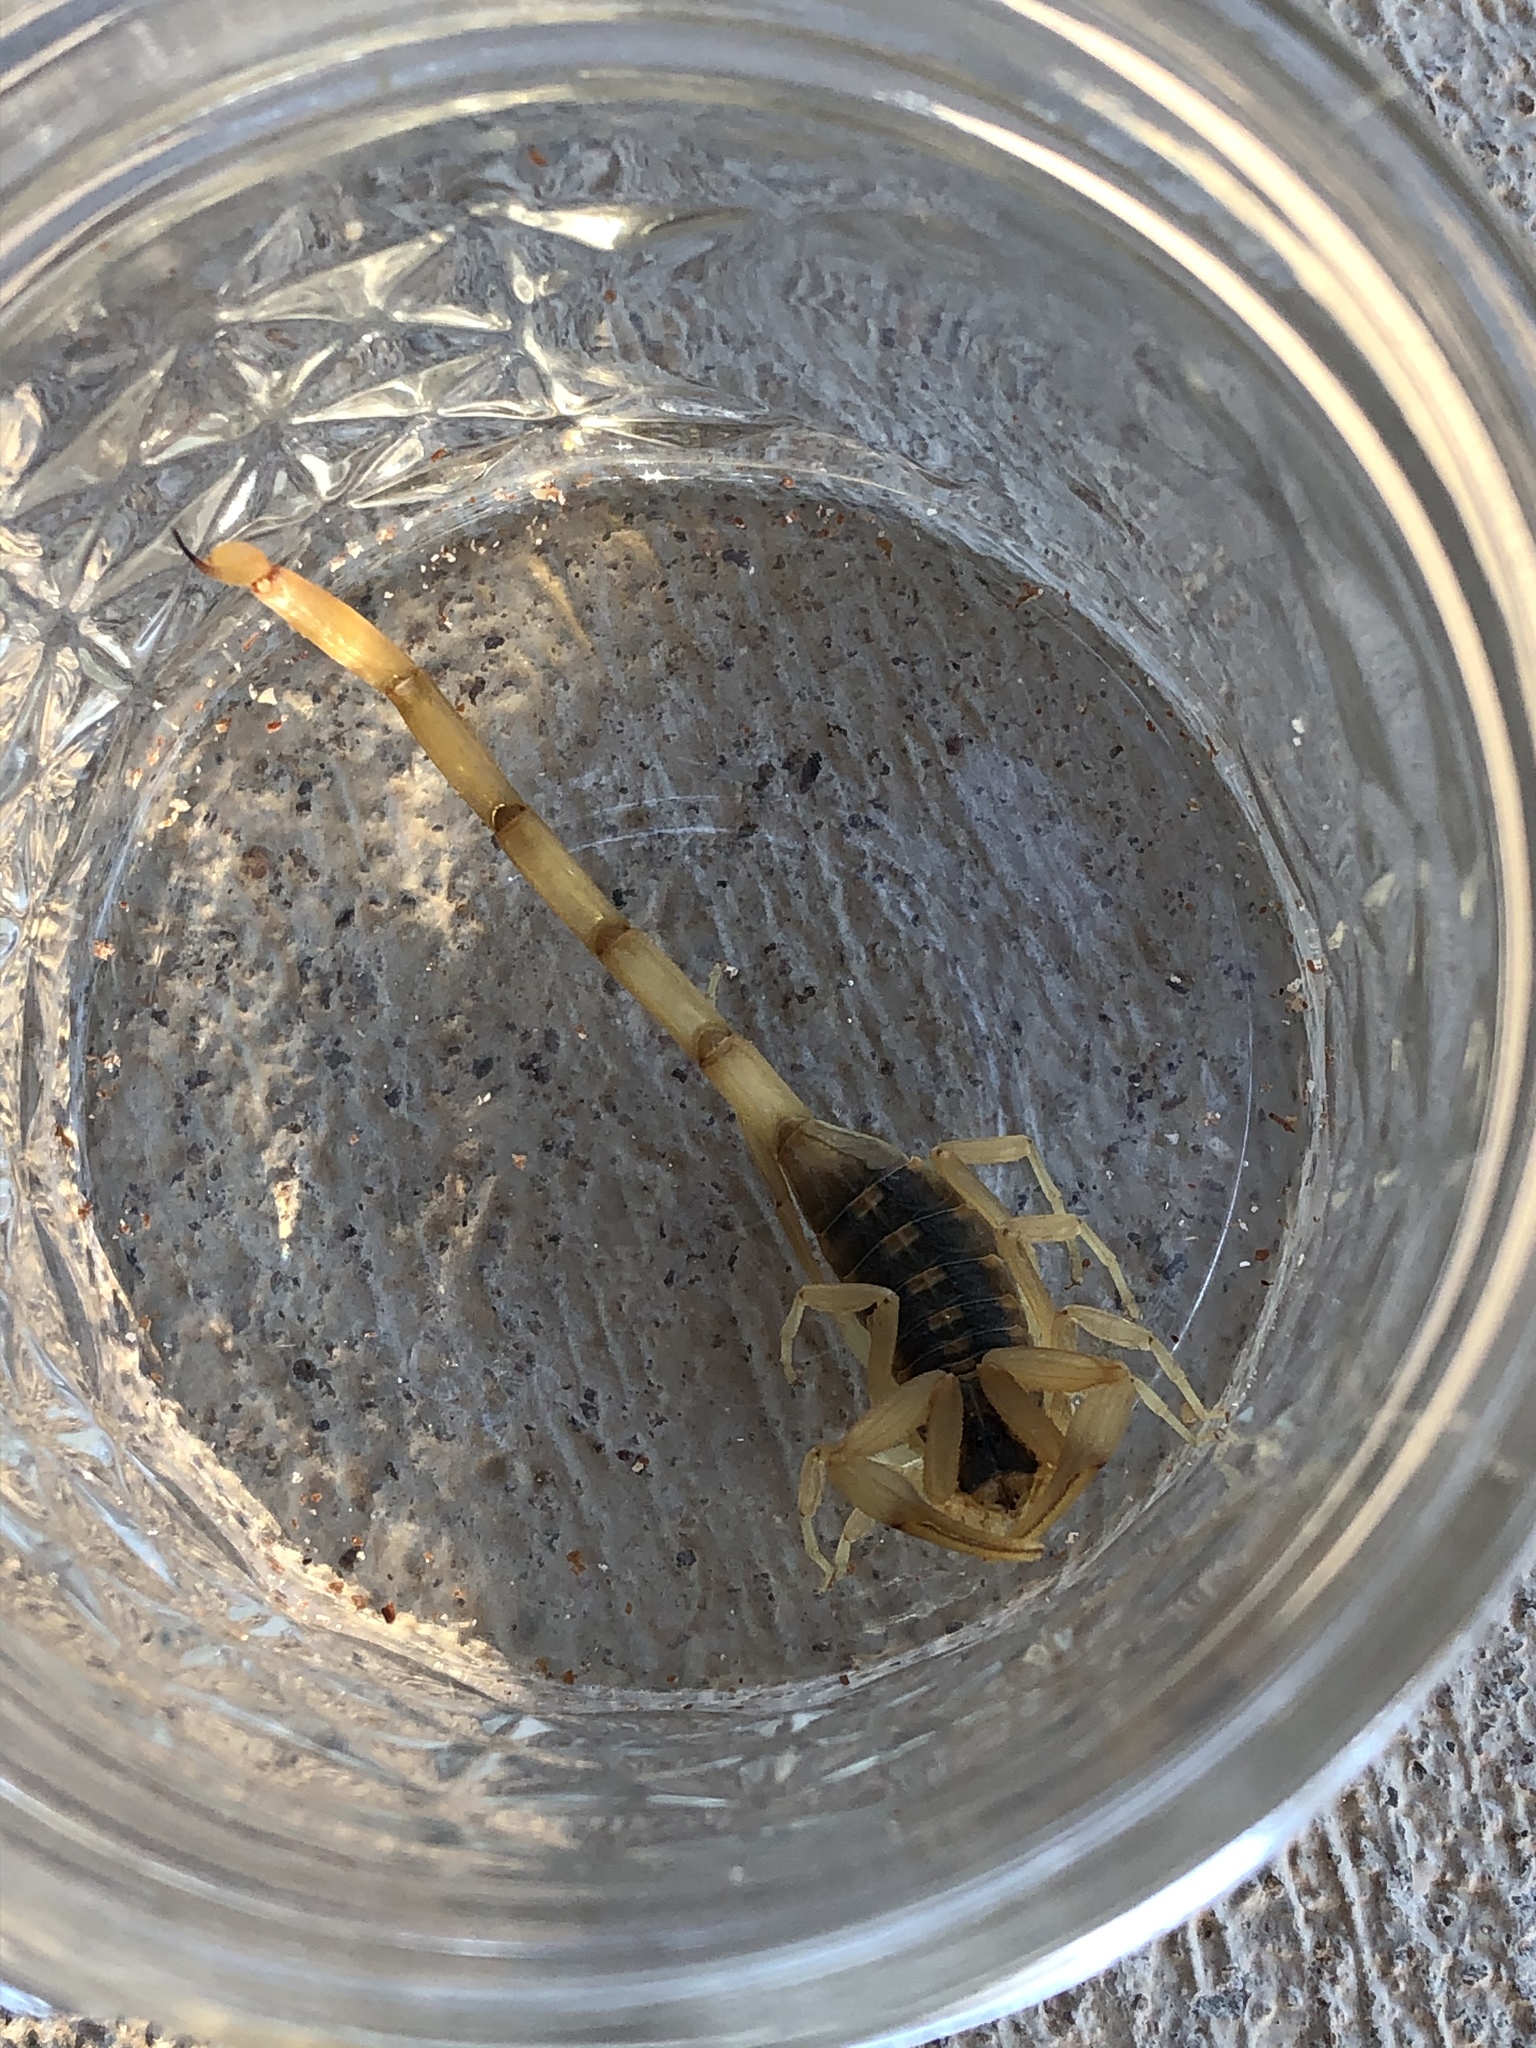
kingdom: Animalia
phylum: Arthropoda
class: Arachnida
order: Scorpiones
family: Buthidae
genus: Centruroides
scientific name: Centruroides vittatus
